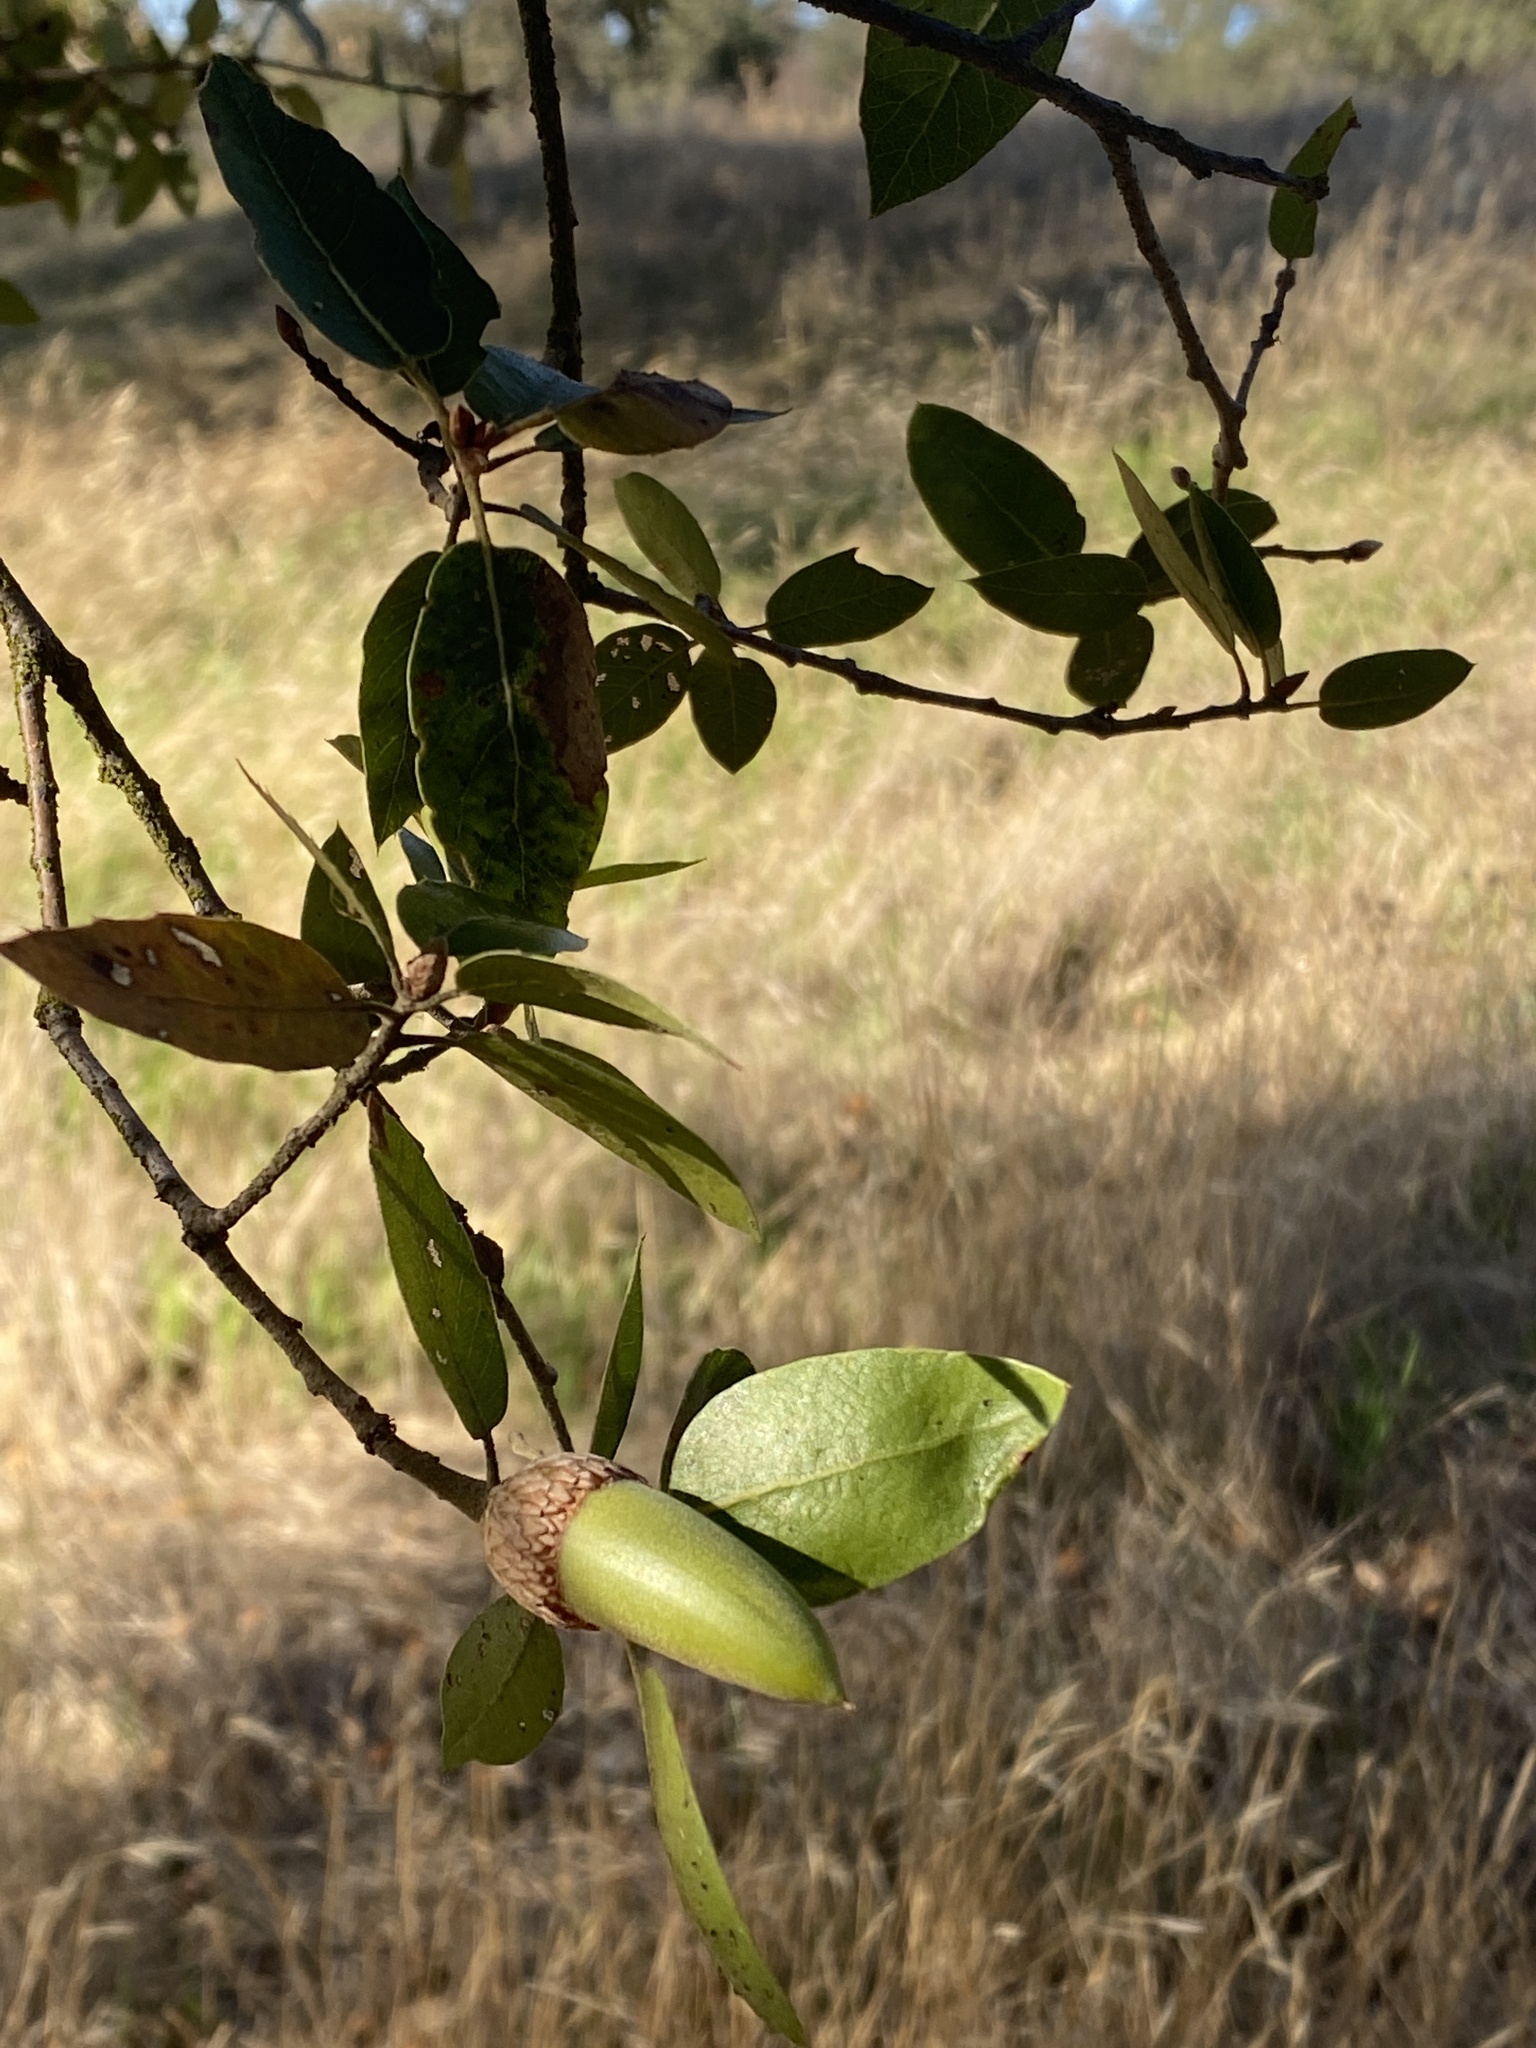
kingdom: Plantae
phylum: Tracheophyta
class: Magnoliopsida
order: Fagales
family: Fagaceae
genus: Quercus
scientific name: Quercus wislizeni
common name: Interior live oak
